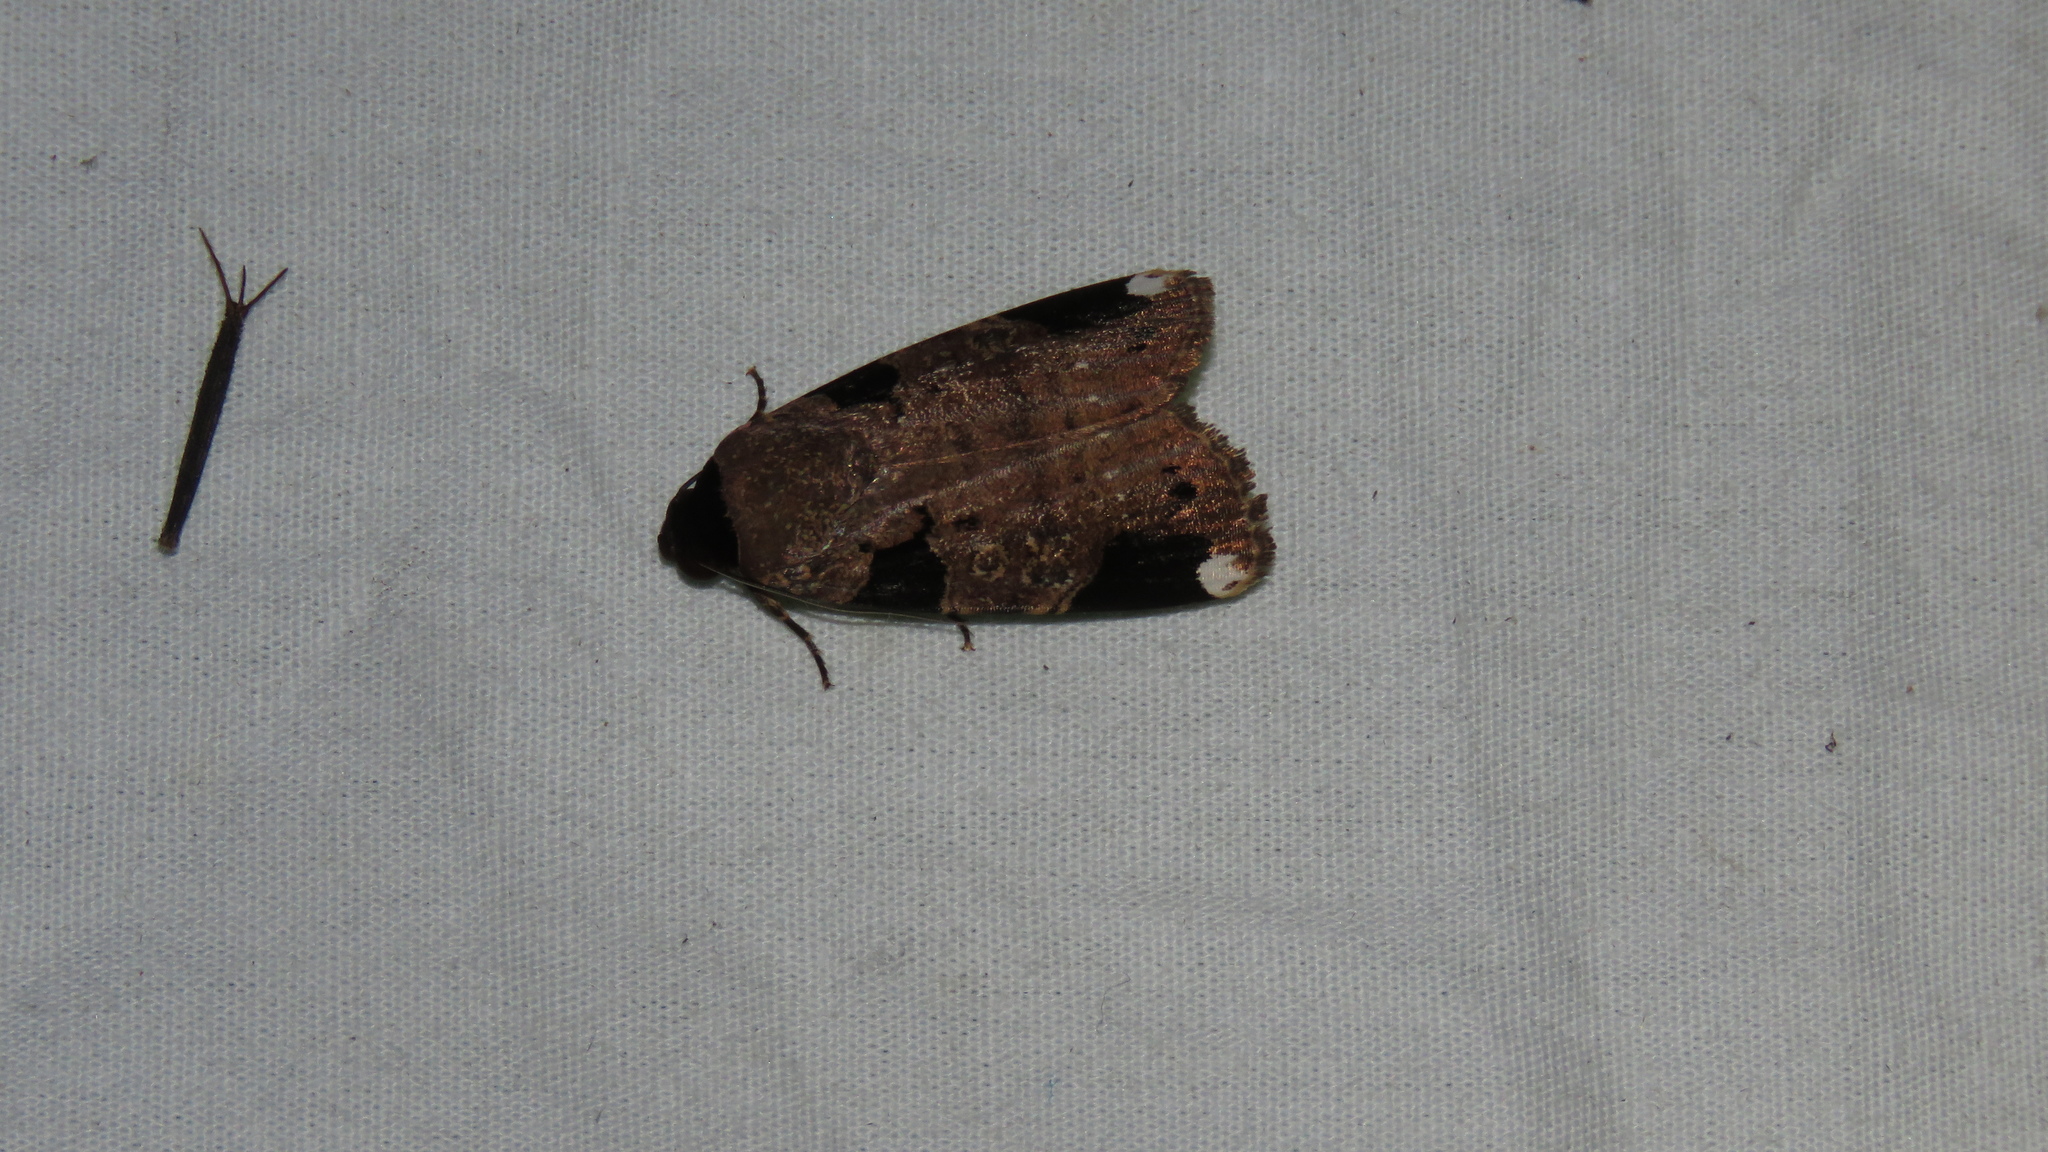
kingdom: Animalia
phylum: Arthropoda
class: Insecta
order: Lepidoptera
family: Noctuidae
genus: Callyna
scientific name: Callyna costiplaga
